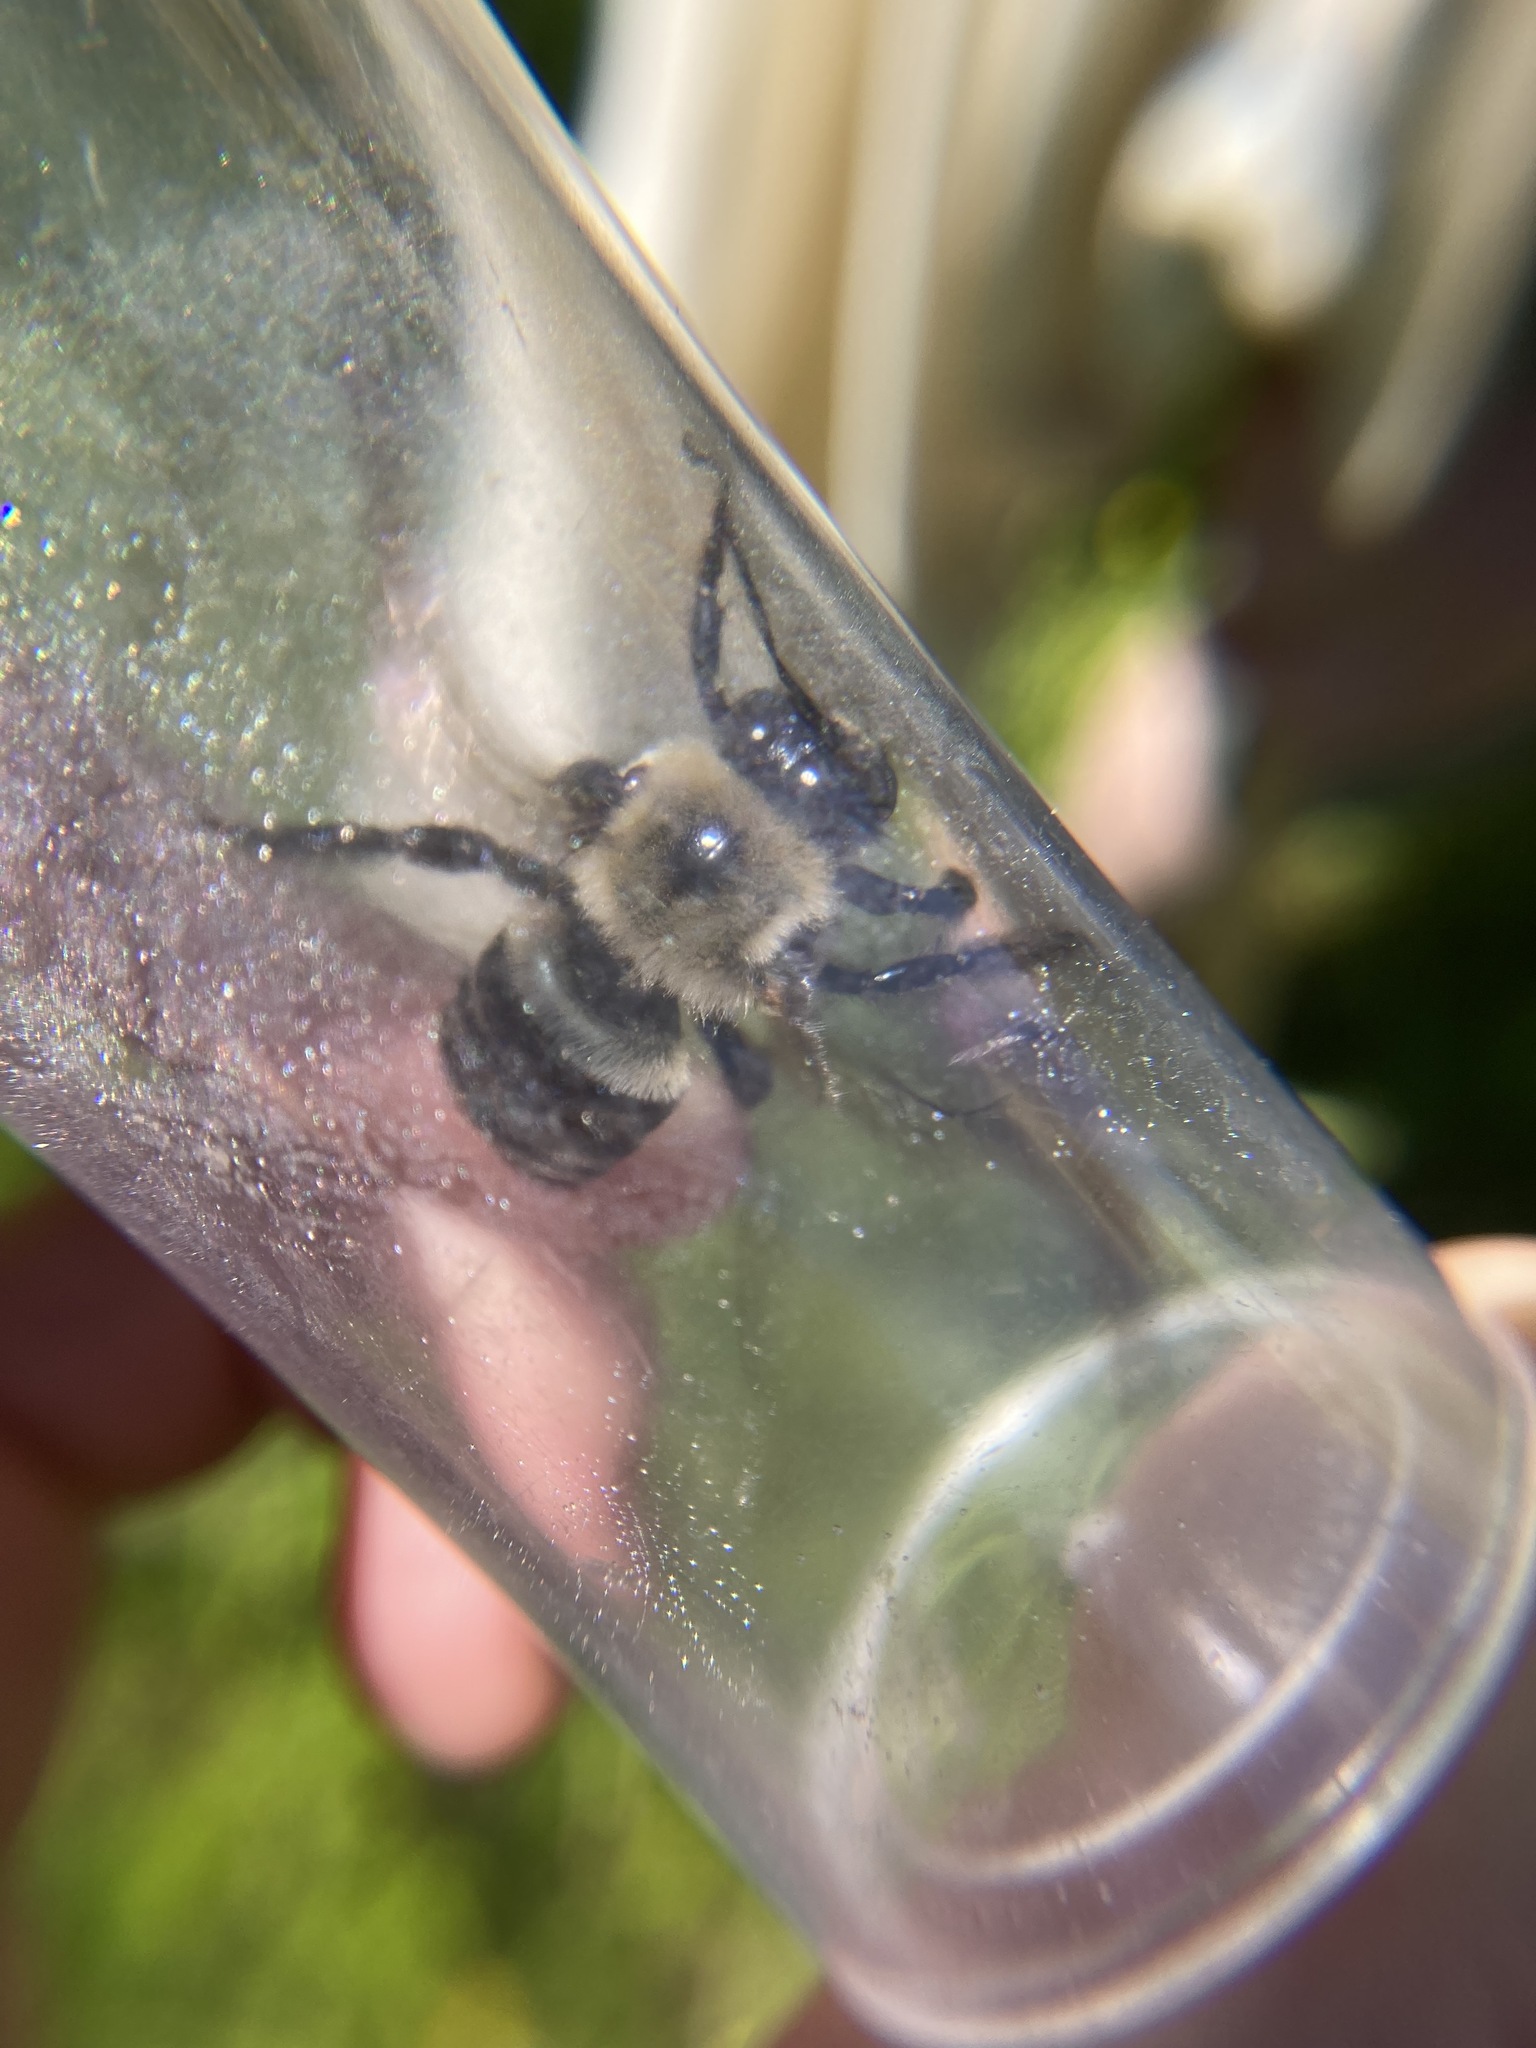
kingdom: Animalia
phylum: Arthropoda
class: Insecta
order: Hymenoptera
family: Apidae
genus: Xylocopa
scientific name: Xylocopa virginica
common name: Carpenter bee
